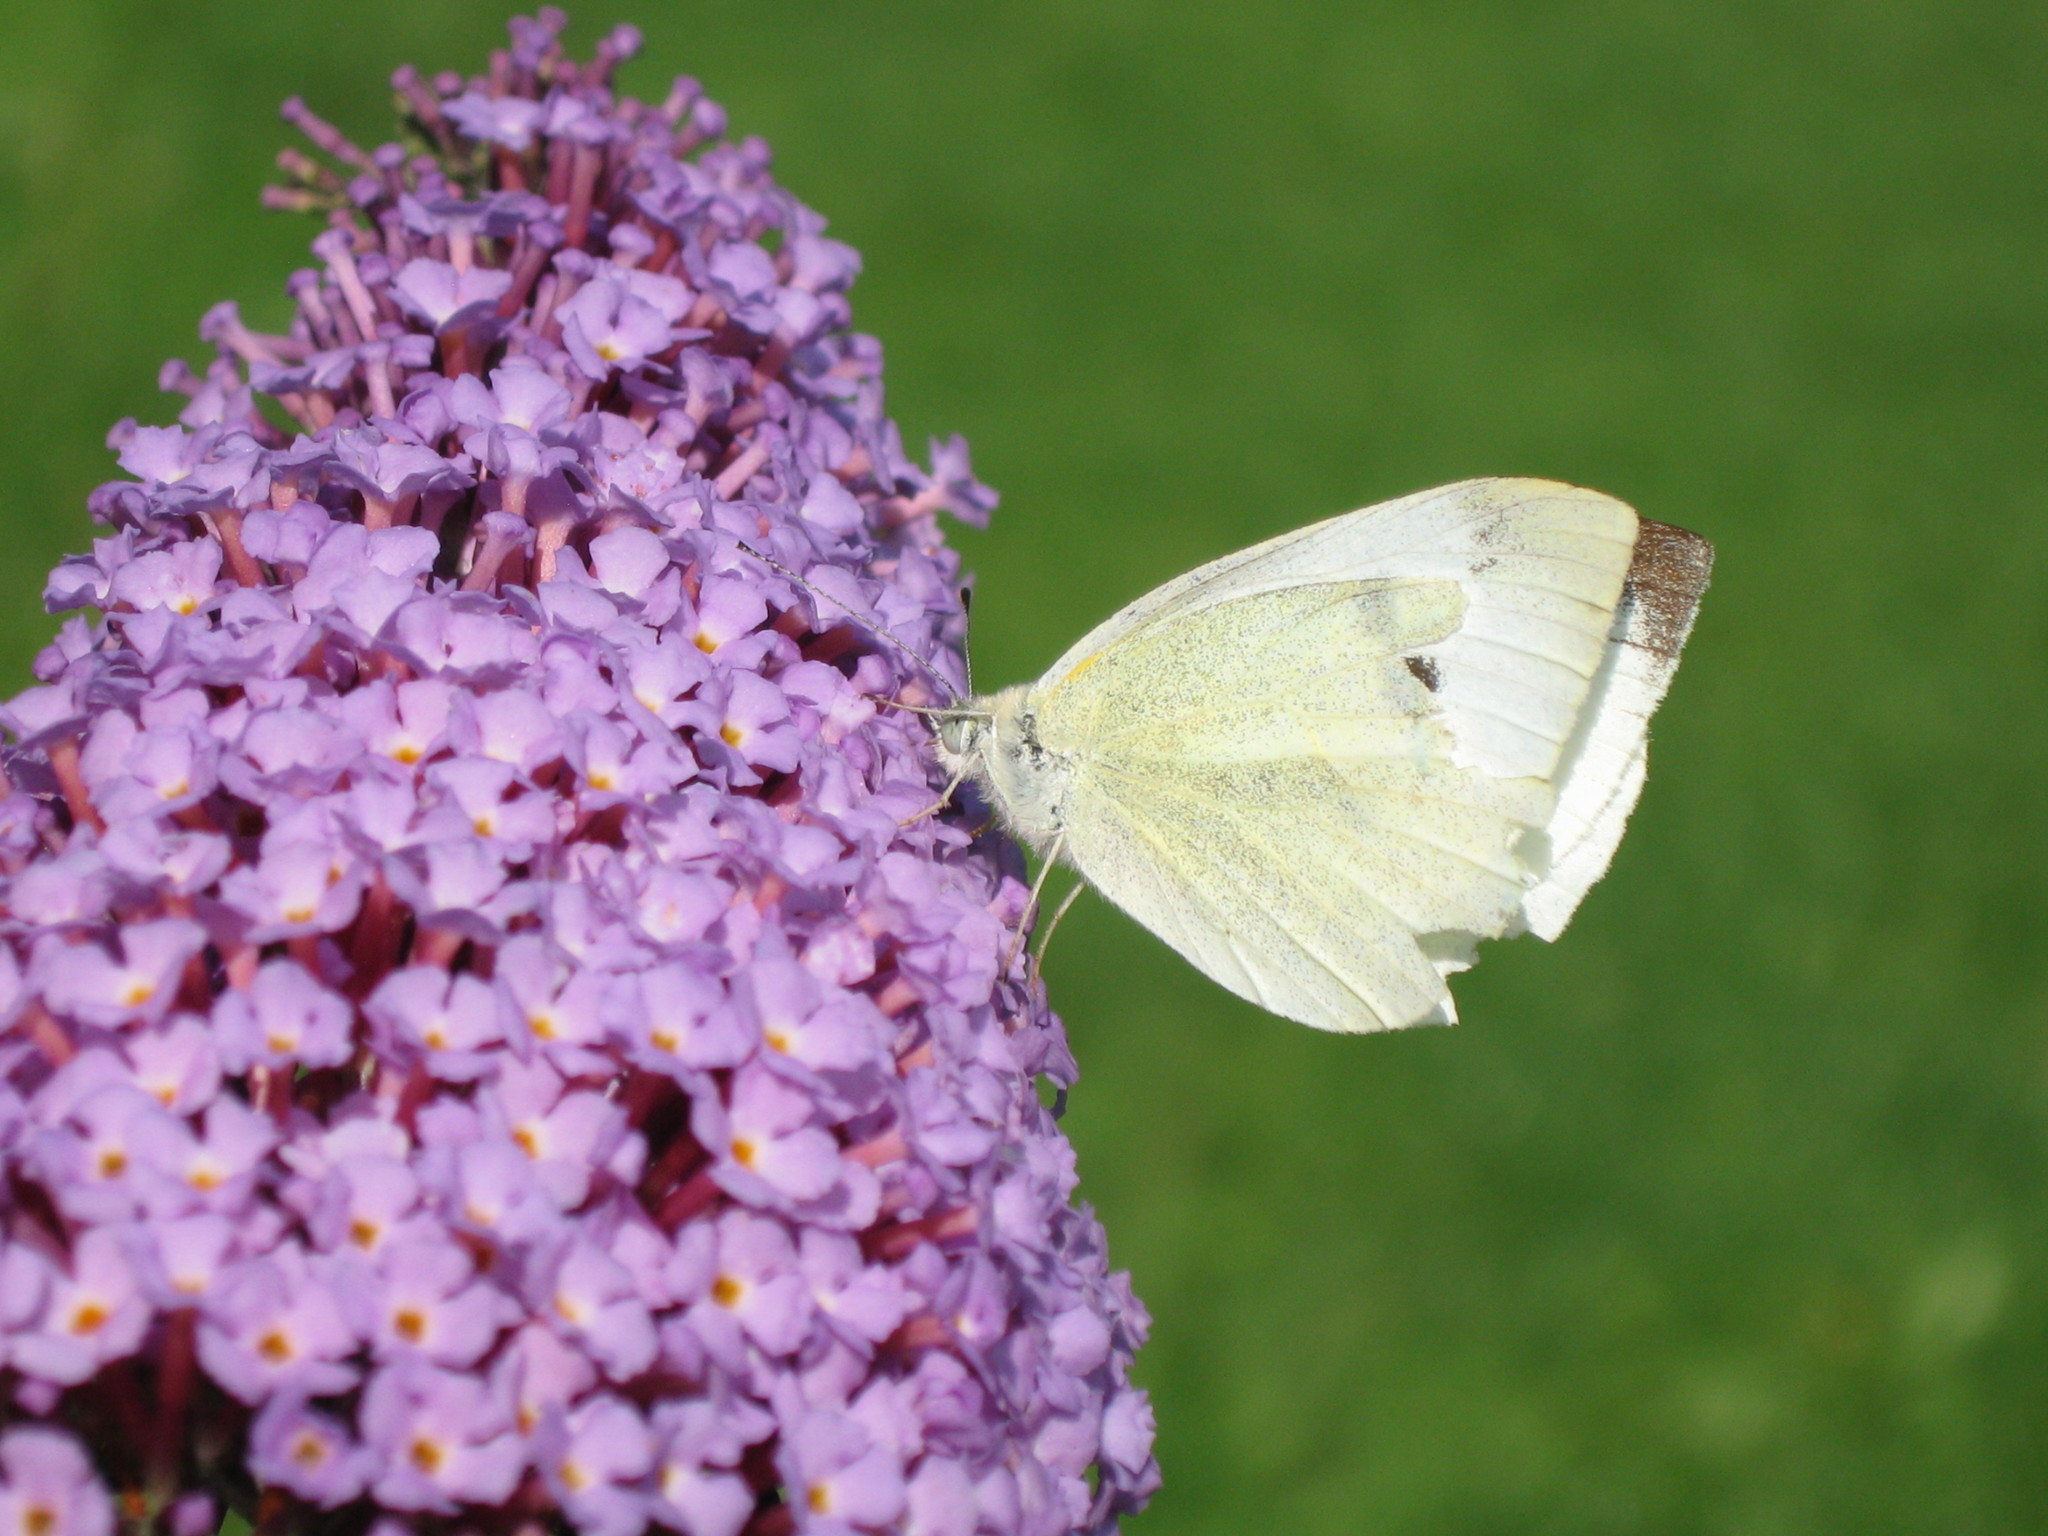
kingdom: Animalia
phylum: Arthropoda
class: Insecta
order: Lepidoptera
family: Pieridae
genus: Pieris
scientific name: Pieris rapae
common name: Small white
